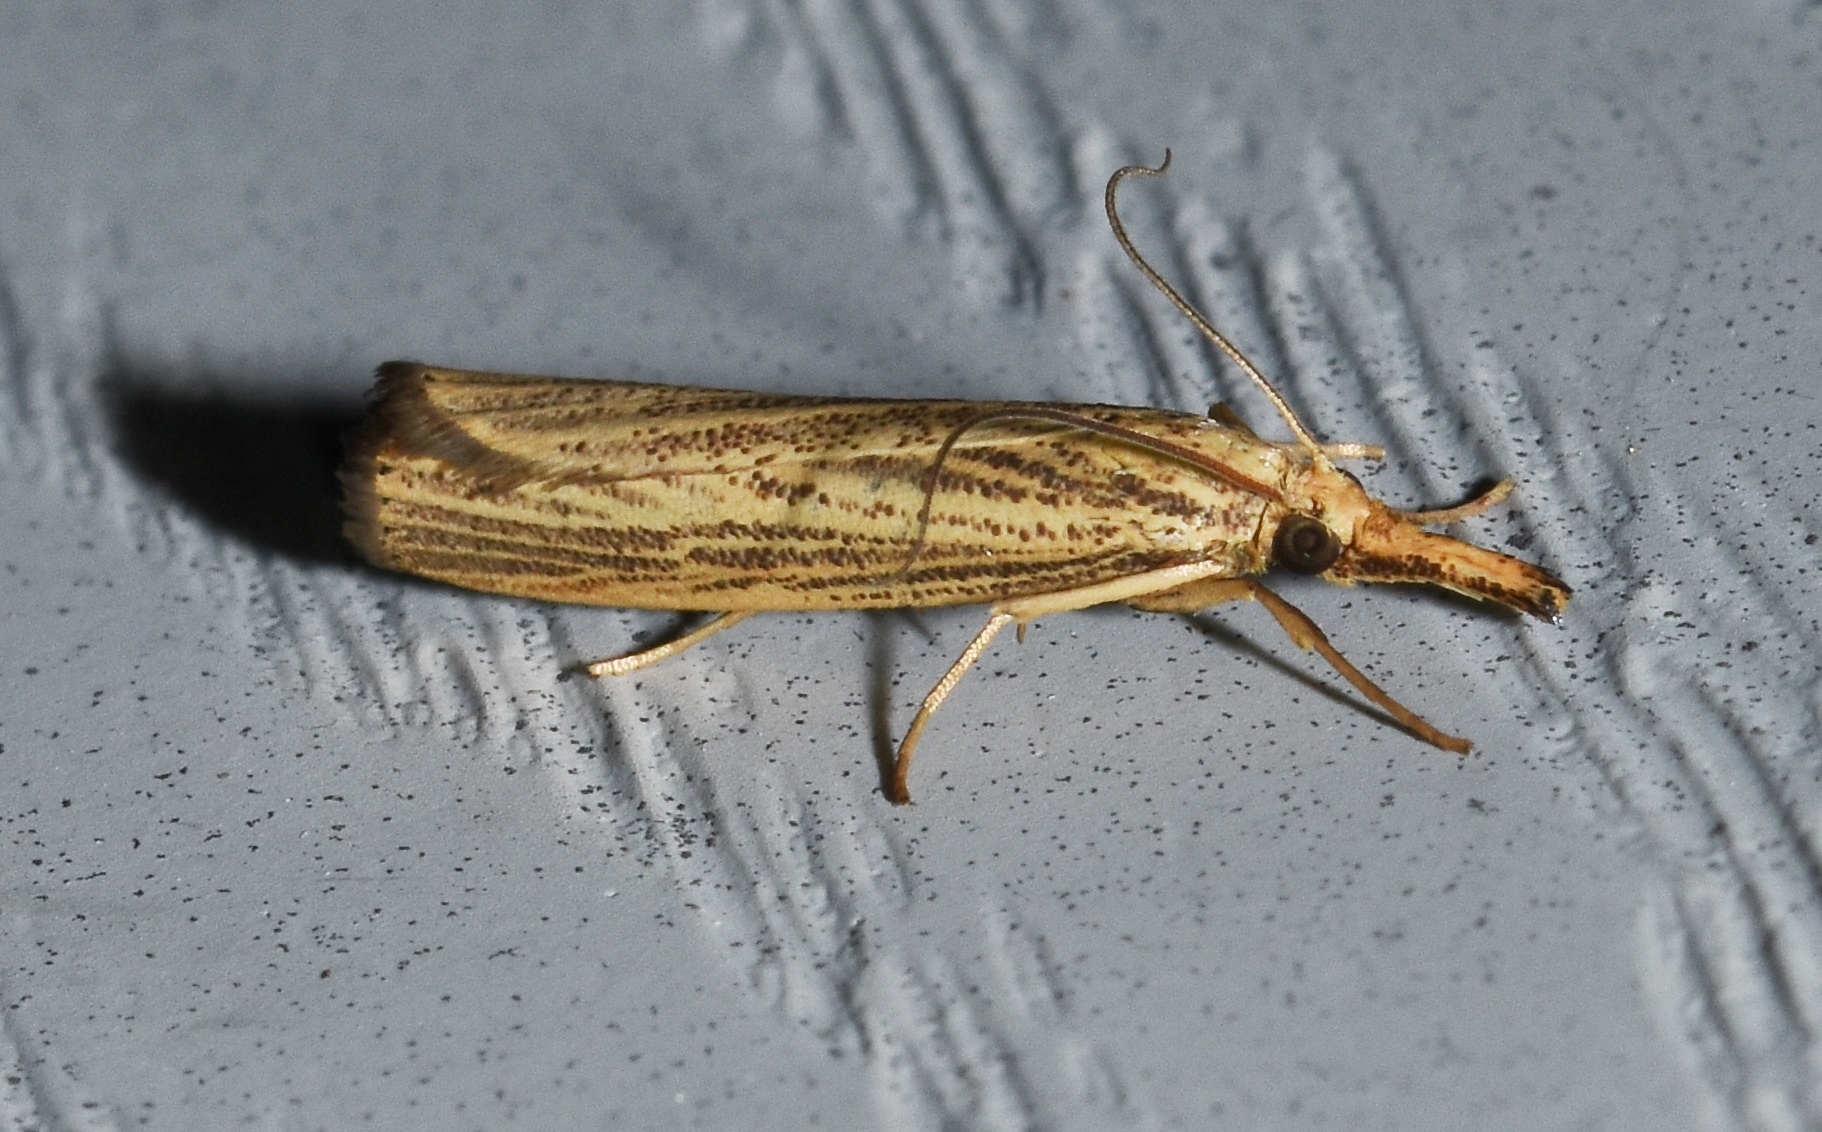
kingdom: Animalia
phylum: Arthropoda
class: Insecta
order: Lepidoptera
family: Crambidae
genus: Agriphila
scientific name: Agriphila vulgivagellus
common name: Vagabond crambus moth
